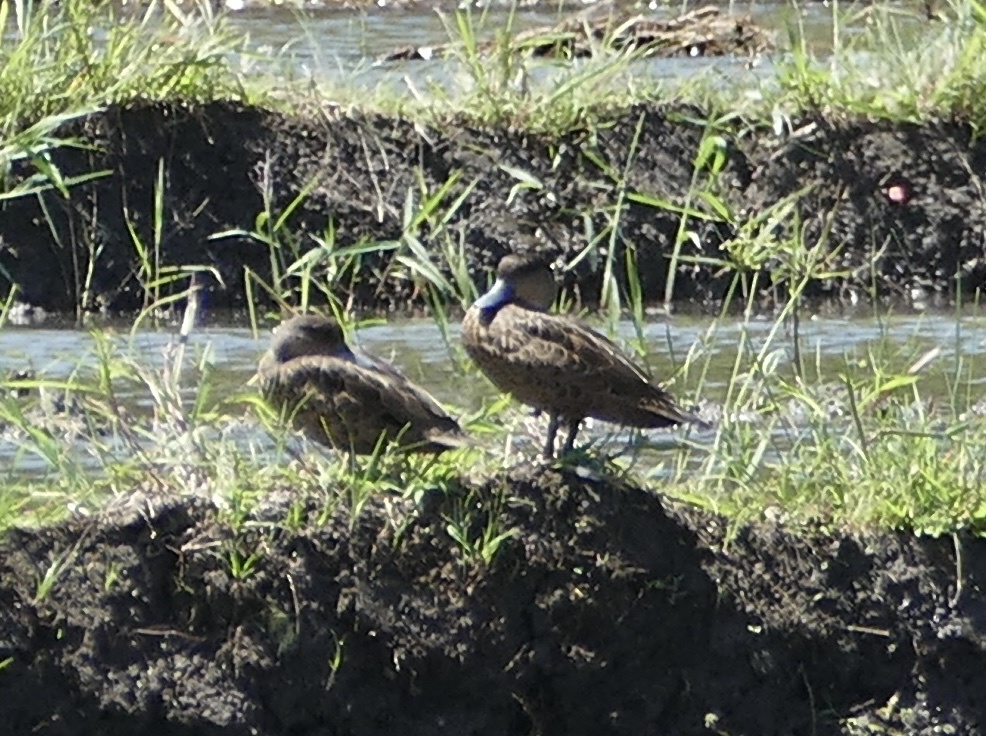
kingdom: Animalia
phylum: Chordata
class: Aves
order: Anseriformes
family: Anatidae
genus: Anas
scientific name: Anas gibberifrons
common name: Sunda teal
